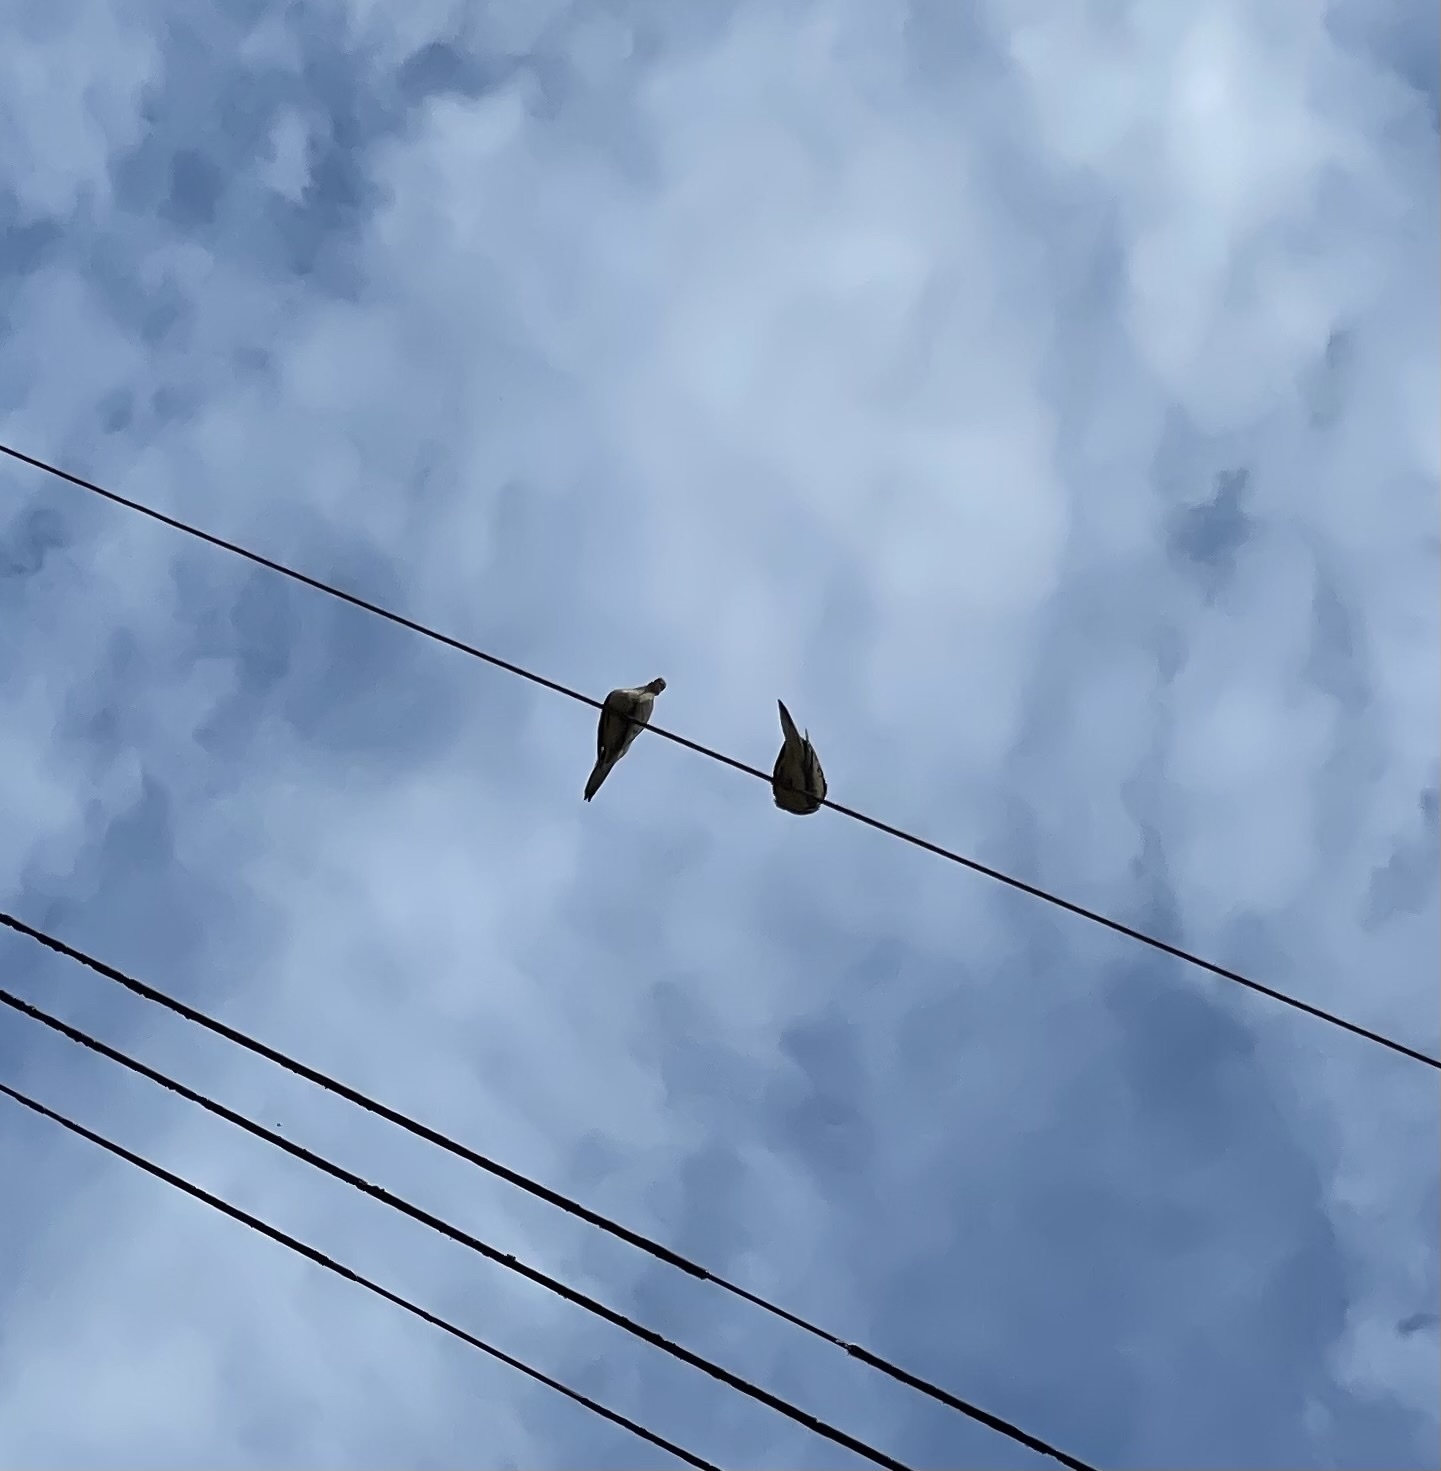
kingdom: Animalia
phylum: Chordata
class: Aves
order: Columbiformes
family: Columbidae
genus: Zenaida
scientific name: Zenaida macroura
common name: Mourning dove
